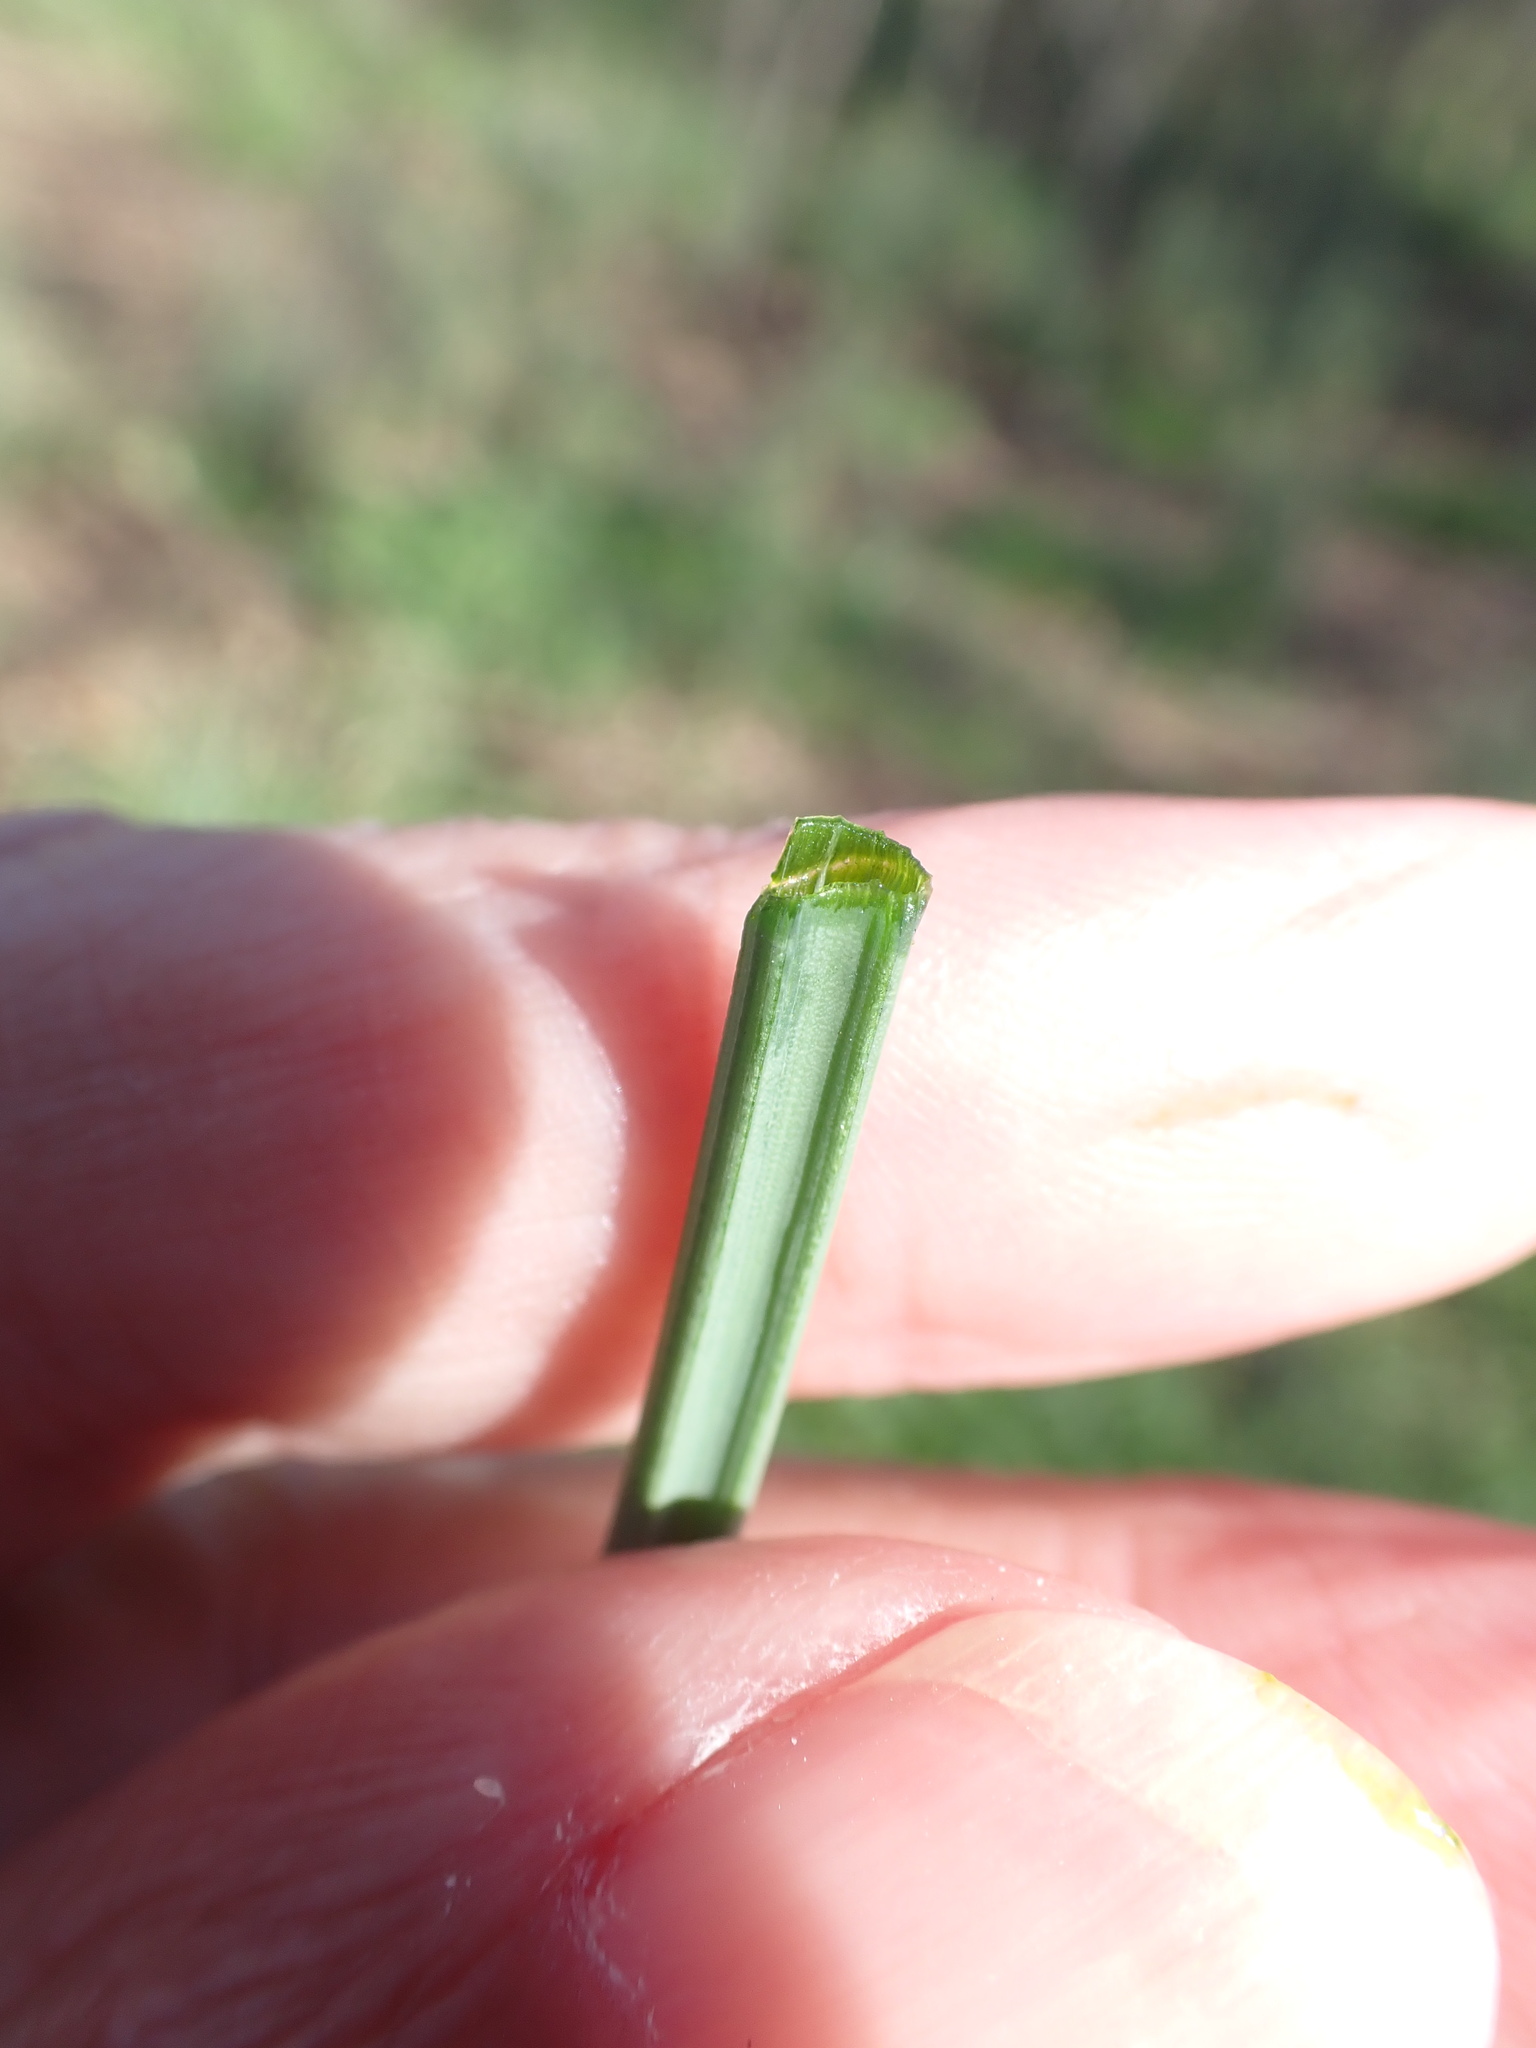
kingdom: Plantae
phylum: Tracheophyta
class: Liliopsida
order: Asparagales
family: Amaryllidaceae
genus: Allium
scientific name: Allium vineale
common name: Crow garlic
